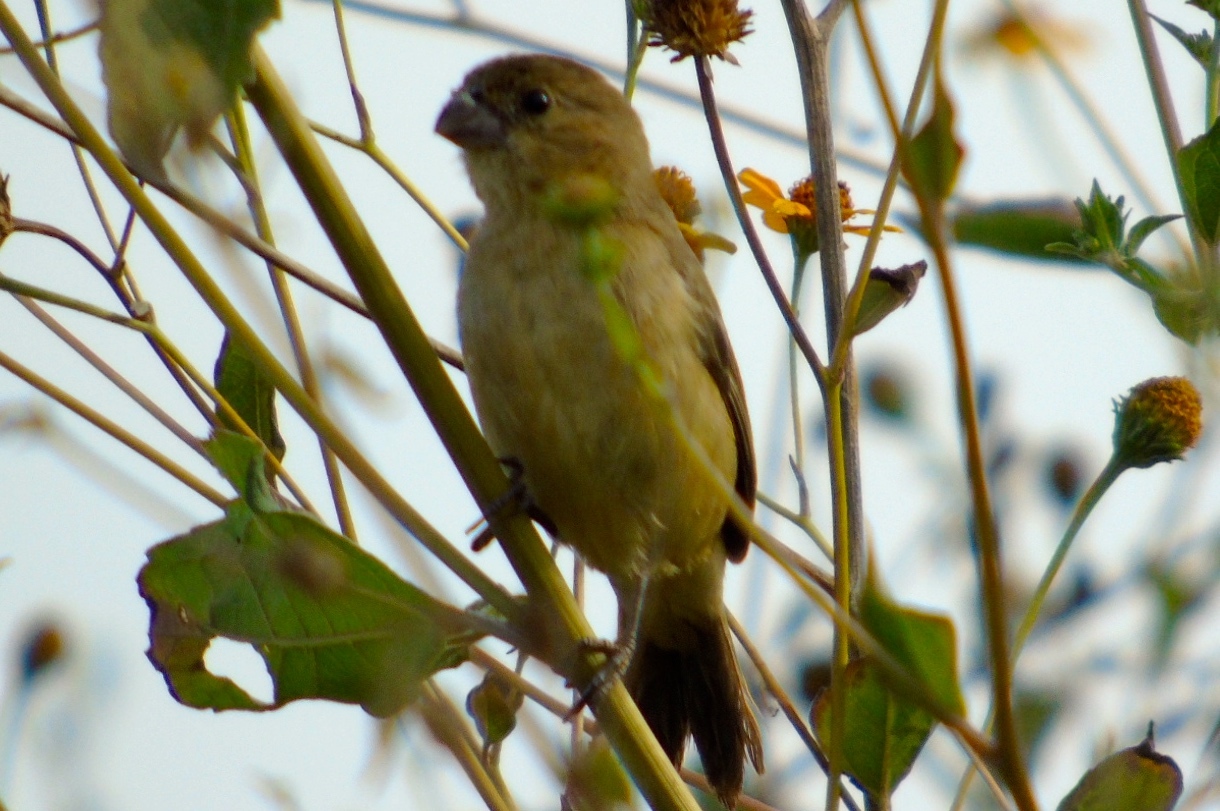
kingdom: Animalia
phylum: Chordata
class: Aves
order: Passeriformes
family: Thraupidae
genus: Sporophila
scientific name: Sporophila torqueola
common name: White-collared seedeater
